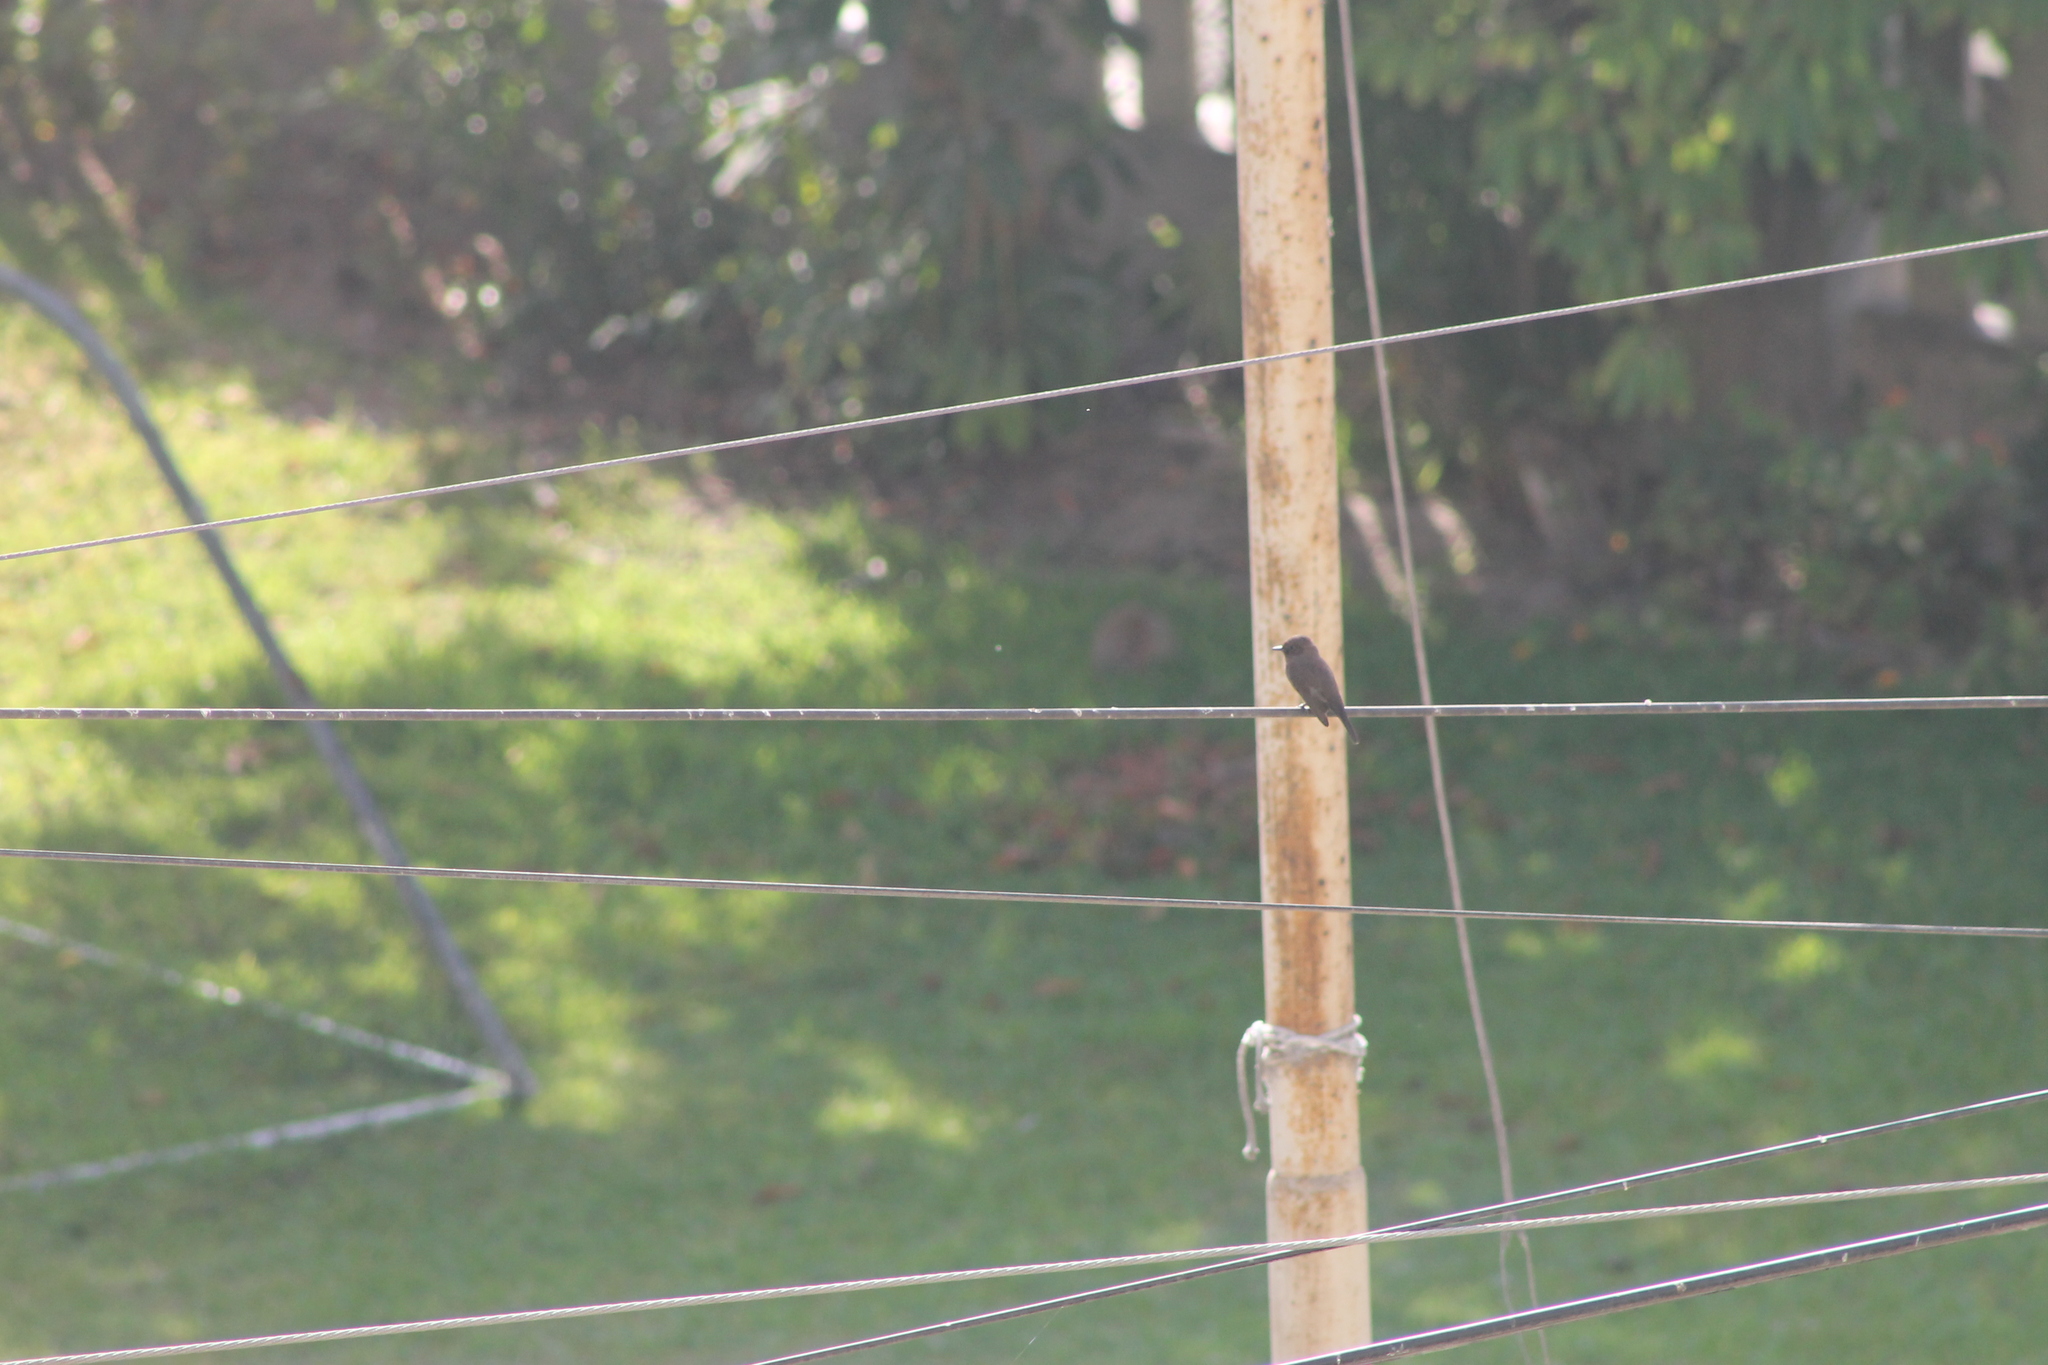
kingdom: Animalia
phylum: Chordata
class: Aves
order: Passeriformes
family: Tyrannidae
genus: Pyrocephalus
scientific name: Pyrocephalus rubinus
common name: Vermilion flycatcher
